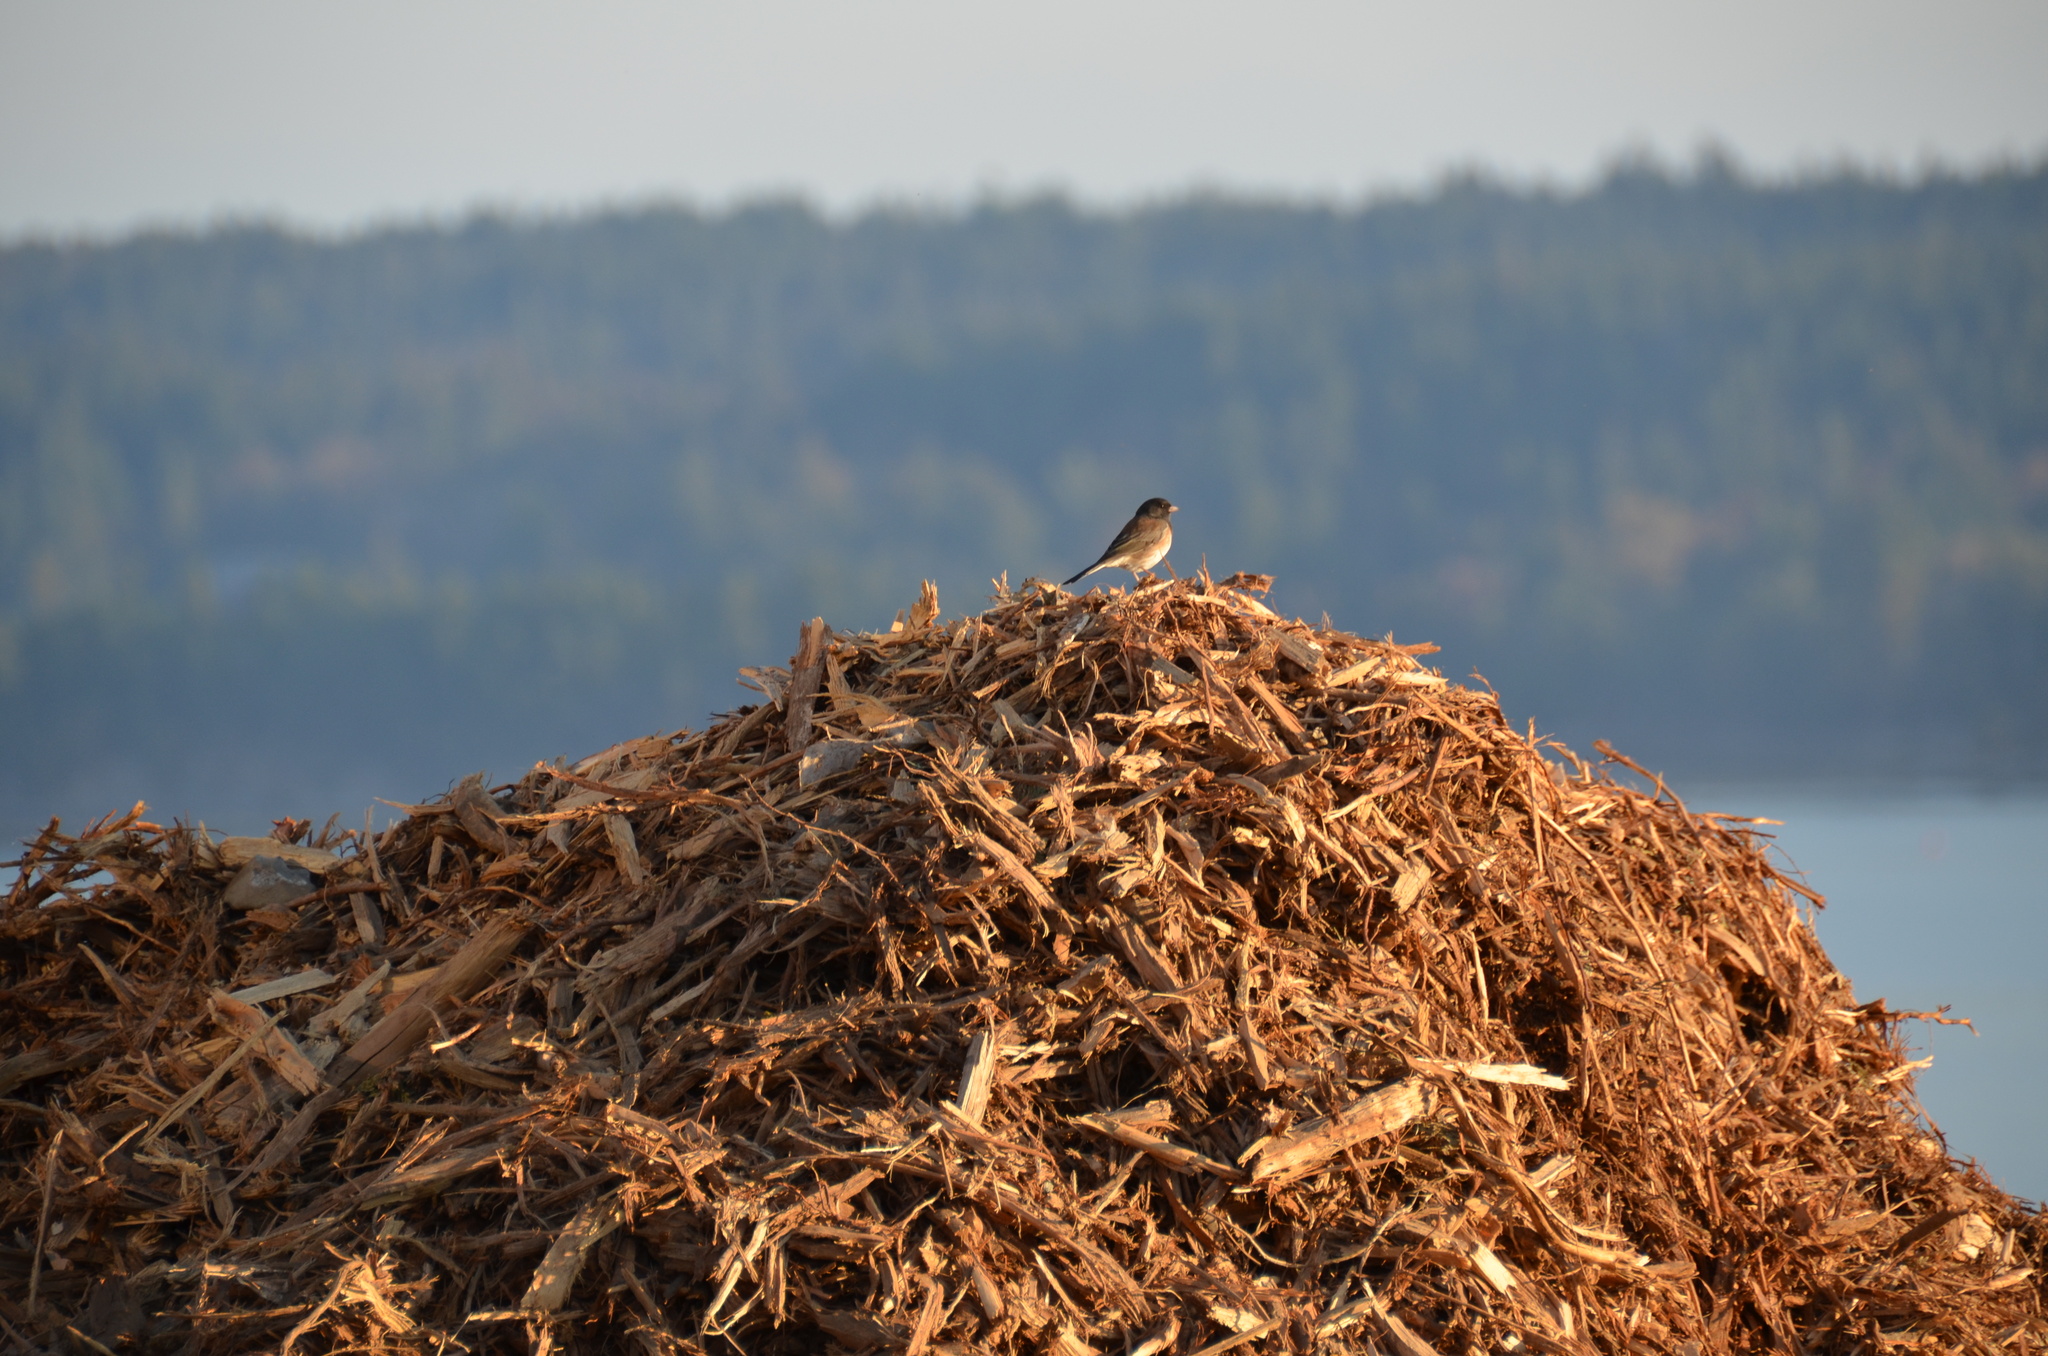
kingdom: Animalia
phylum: Chordata
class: Aves
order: Passeriformes
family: Passerellidae
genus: Junco
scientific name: Junco hyemalis
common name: Dark-eyed junco
